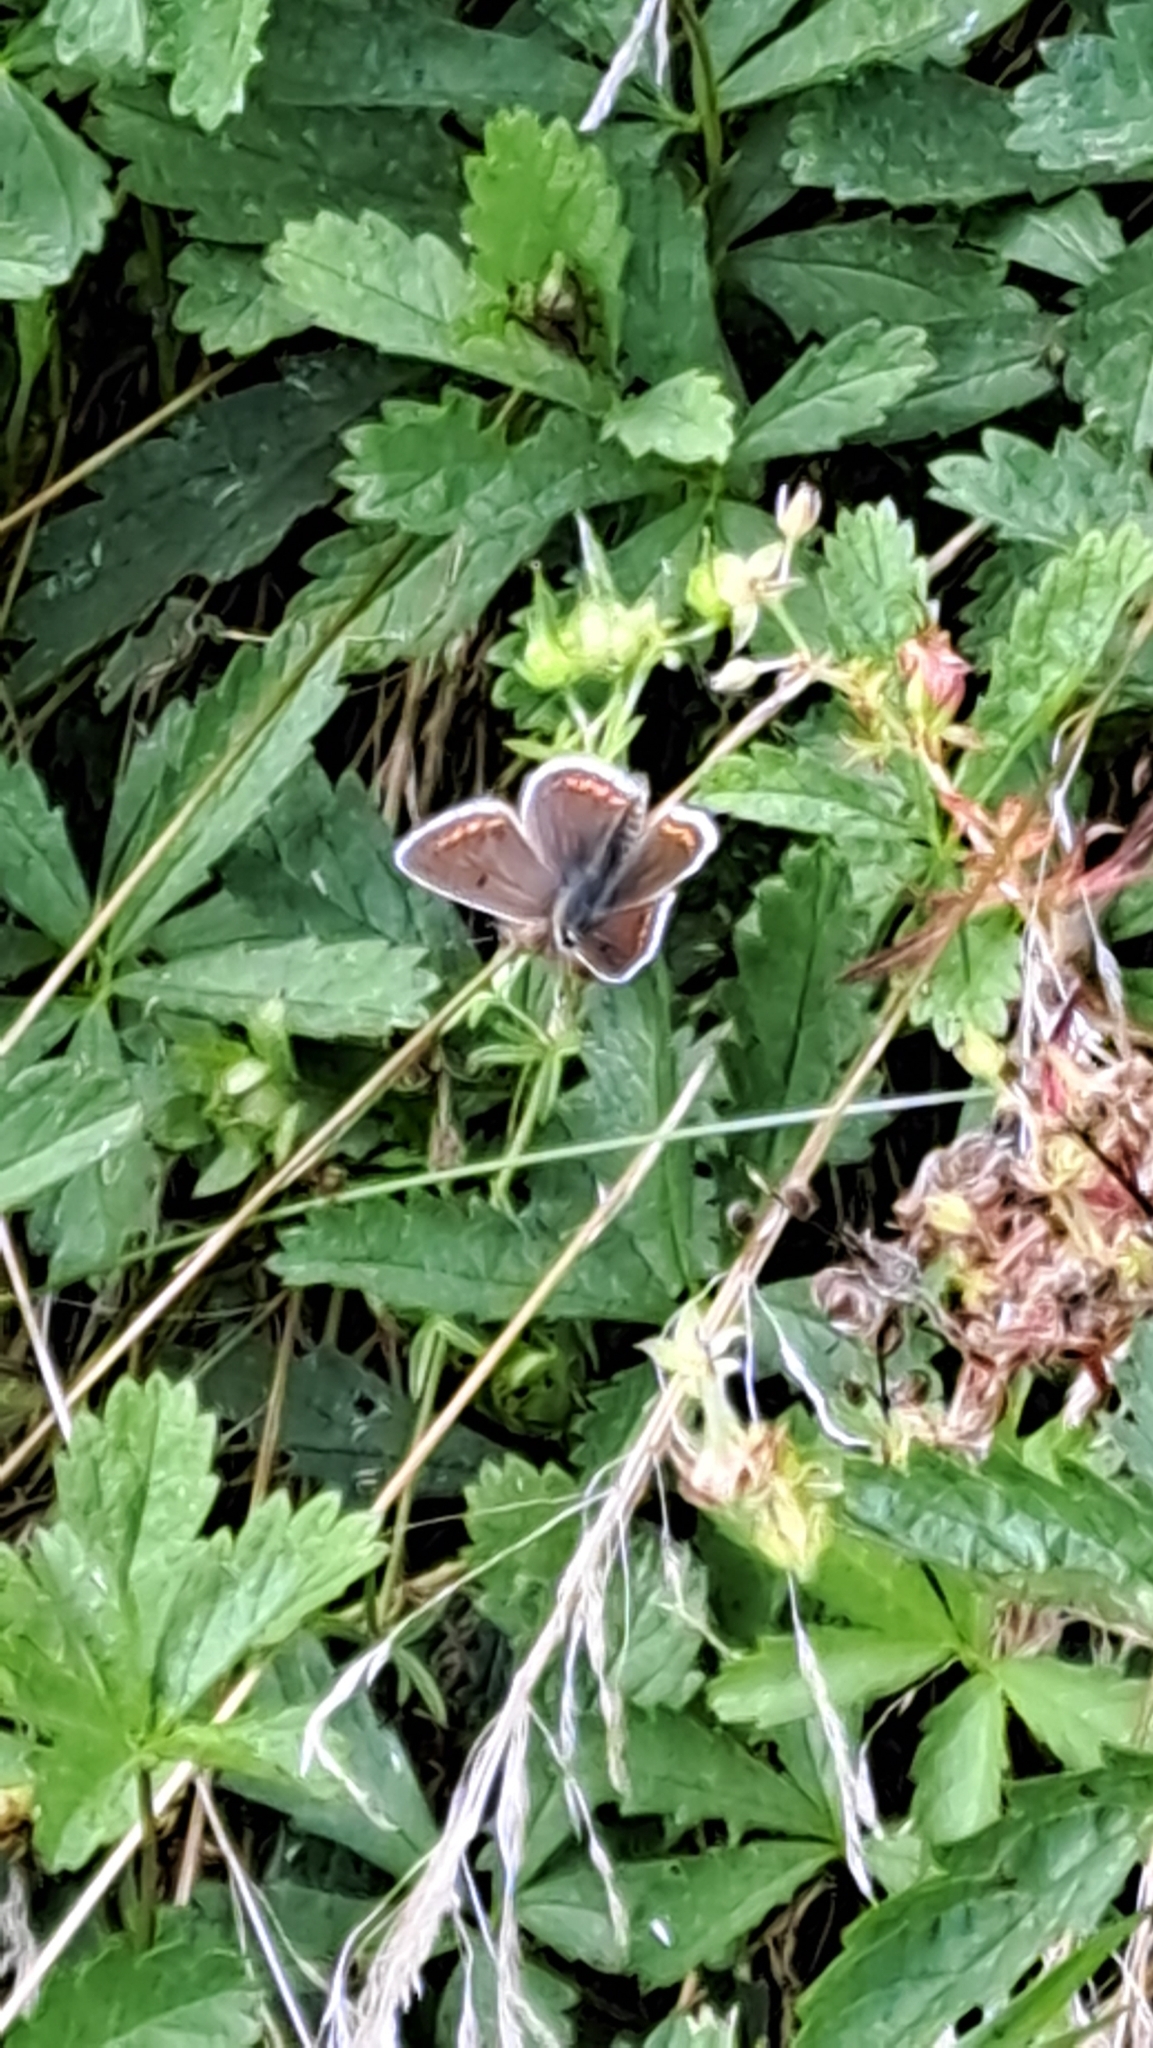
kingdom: Animalia
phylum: Arthropoda
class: Insecta
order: Lepidoptera
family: Lycaenidae
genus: Aricia
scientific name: Aricia agestis
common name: Brown argus
